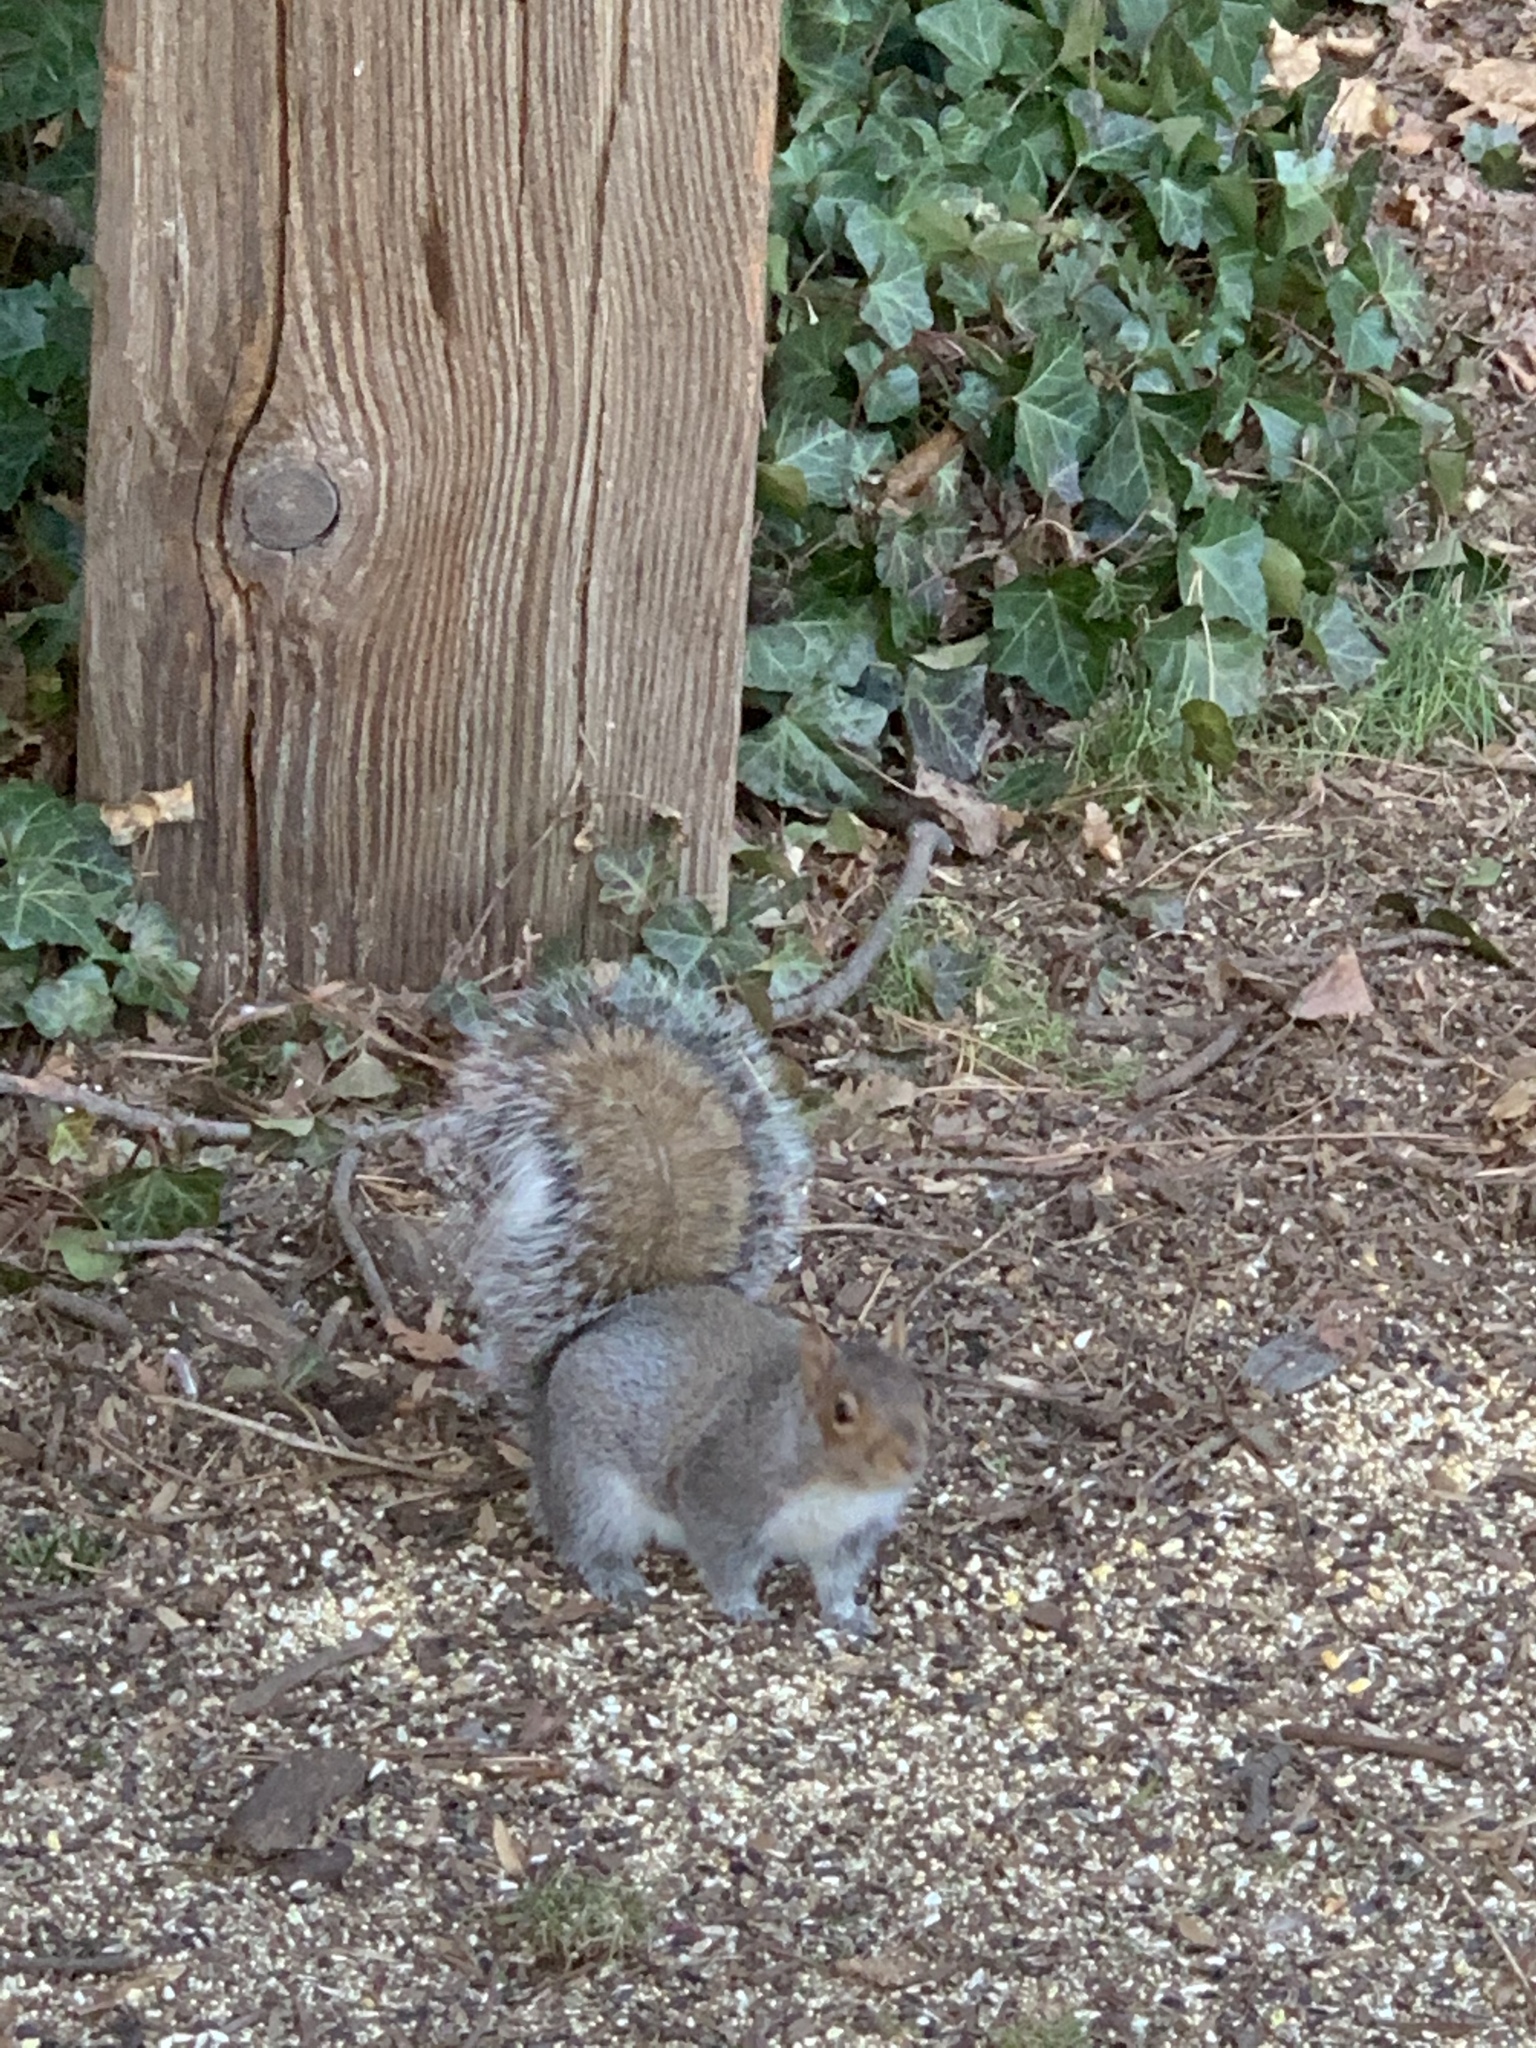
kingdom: Animalia
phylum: Chordata
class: Mammalia
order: Rodentia
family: Sciuridae
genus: Sciurus
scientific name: Sciurus carolinensis
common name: Eastern gray squirrel
